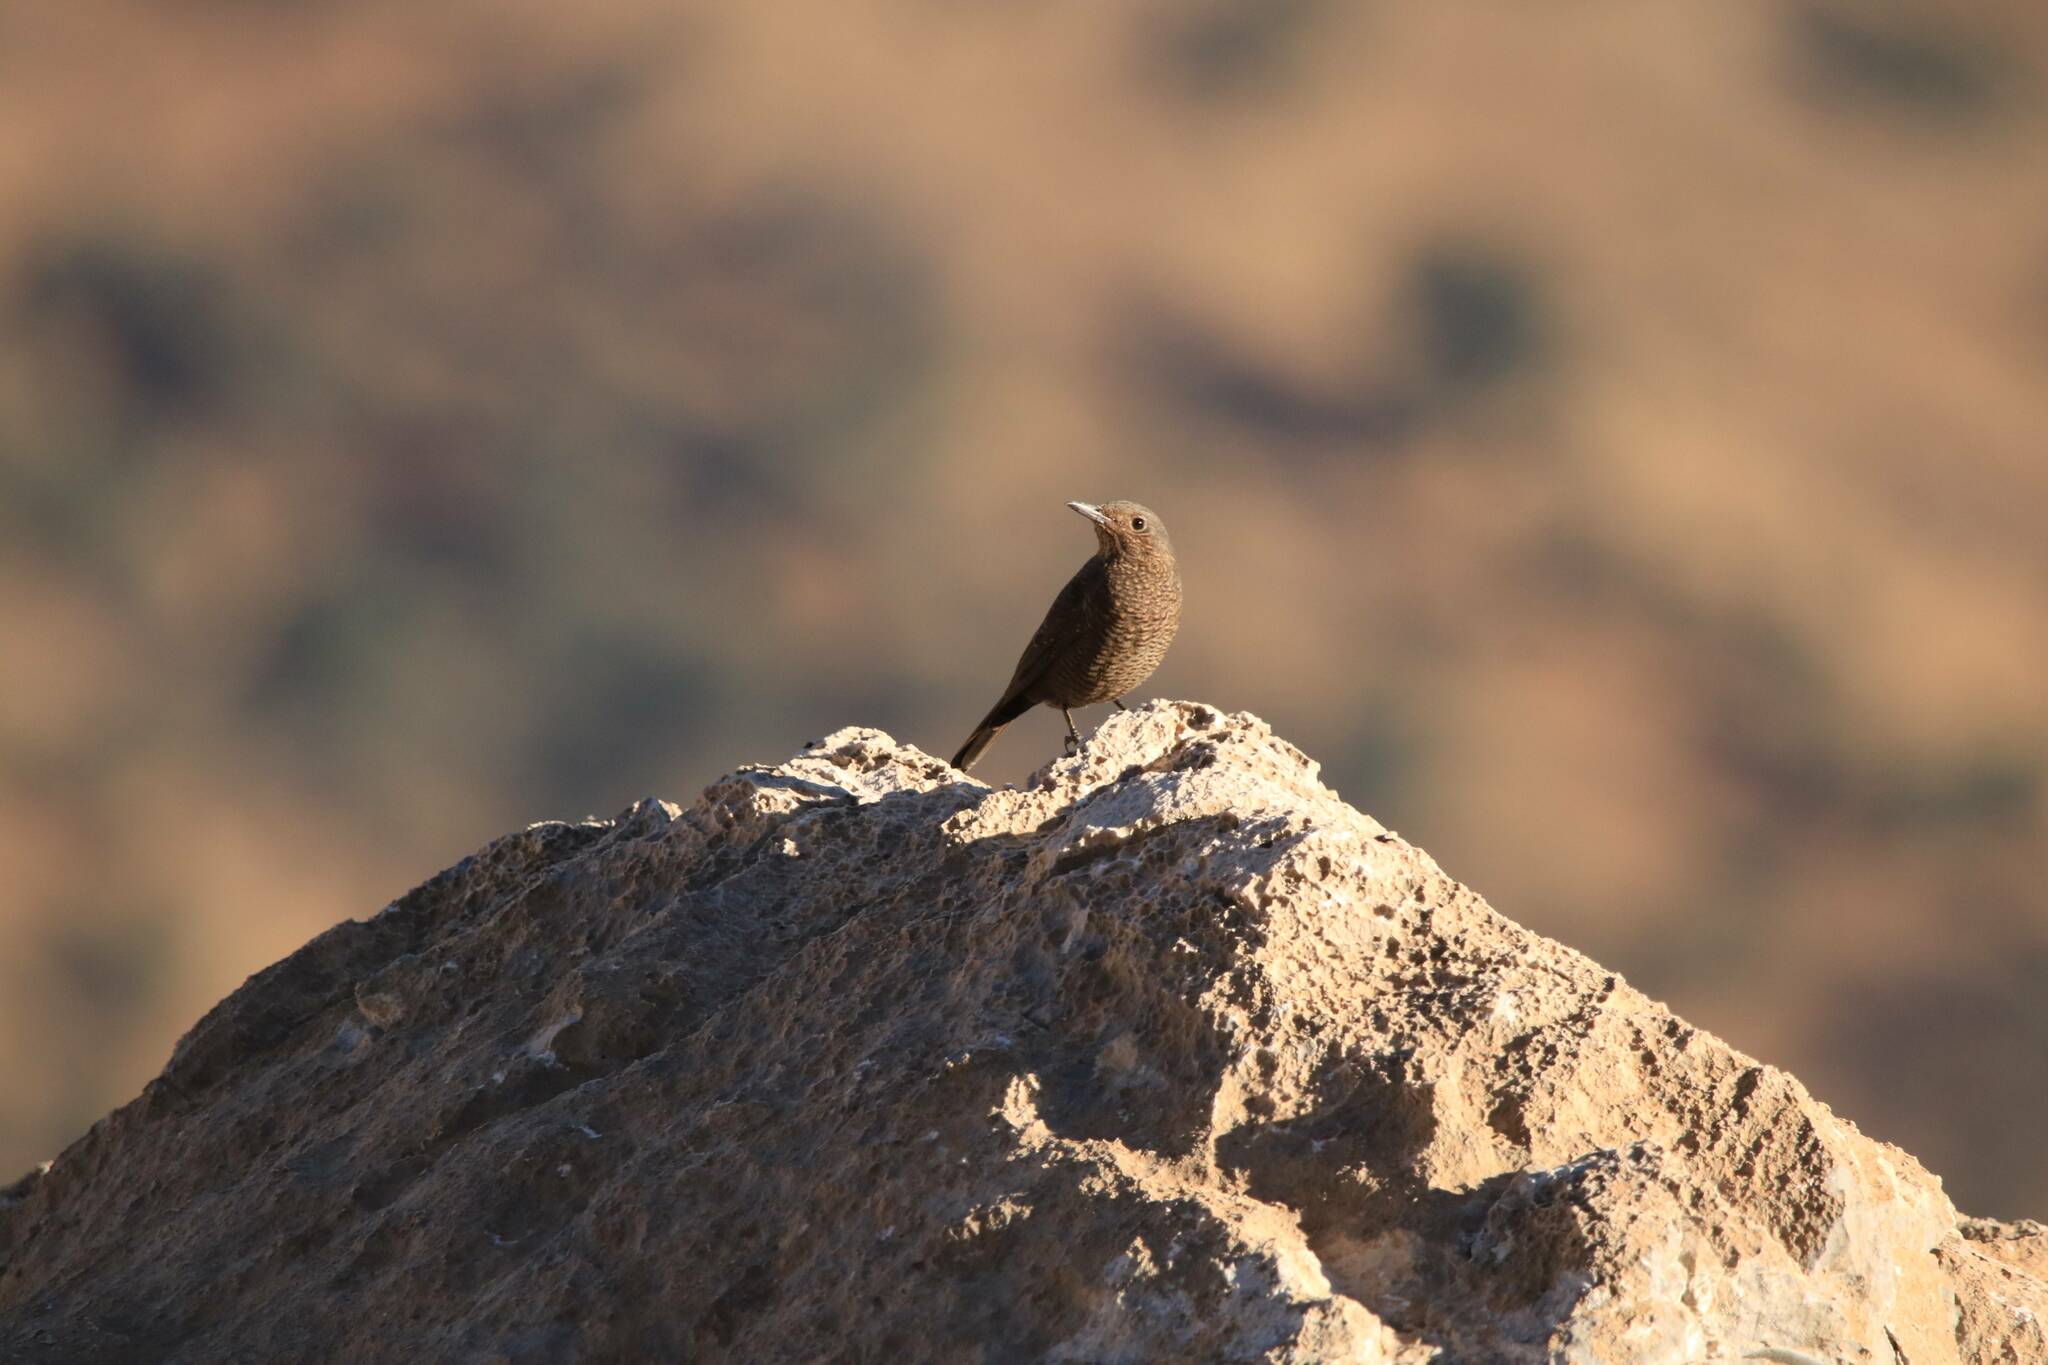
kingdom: Animalia
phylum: Chordata
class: Aves
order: Passeriformes
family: Muscicapidae
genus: Monticola
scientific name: Monticola solitarius
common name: Blue rock thrush
